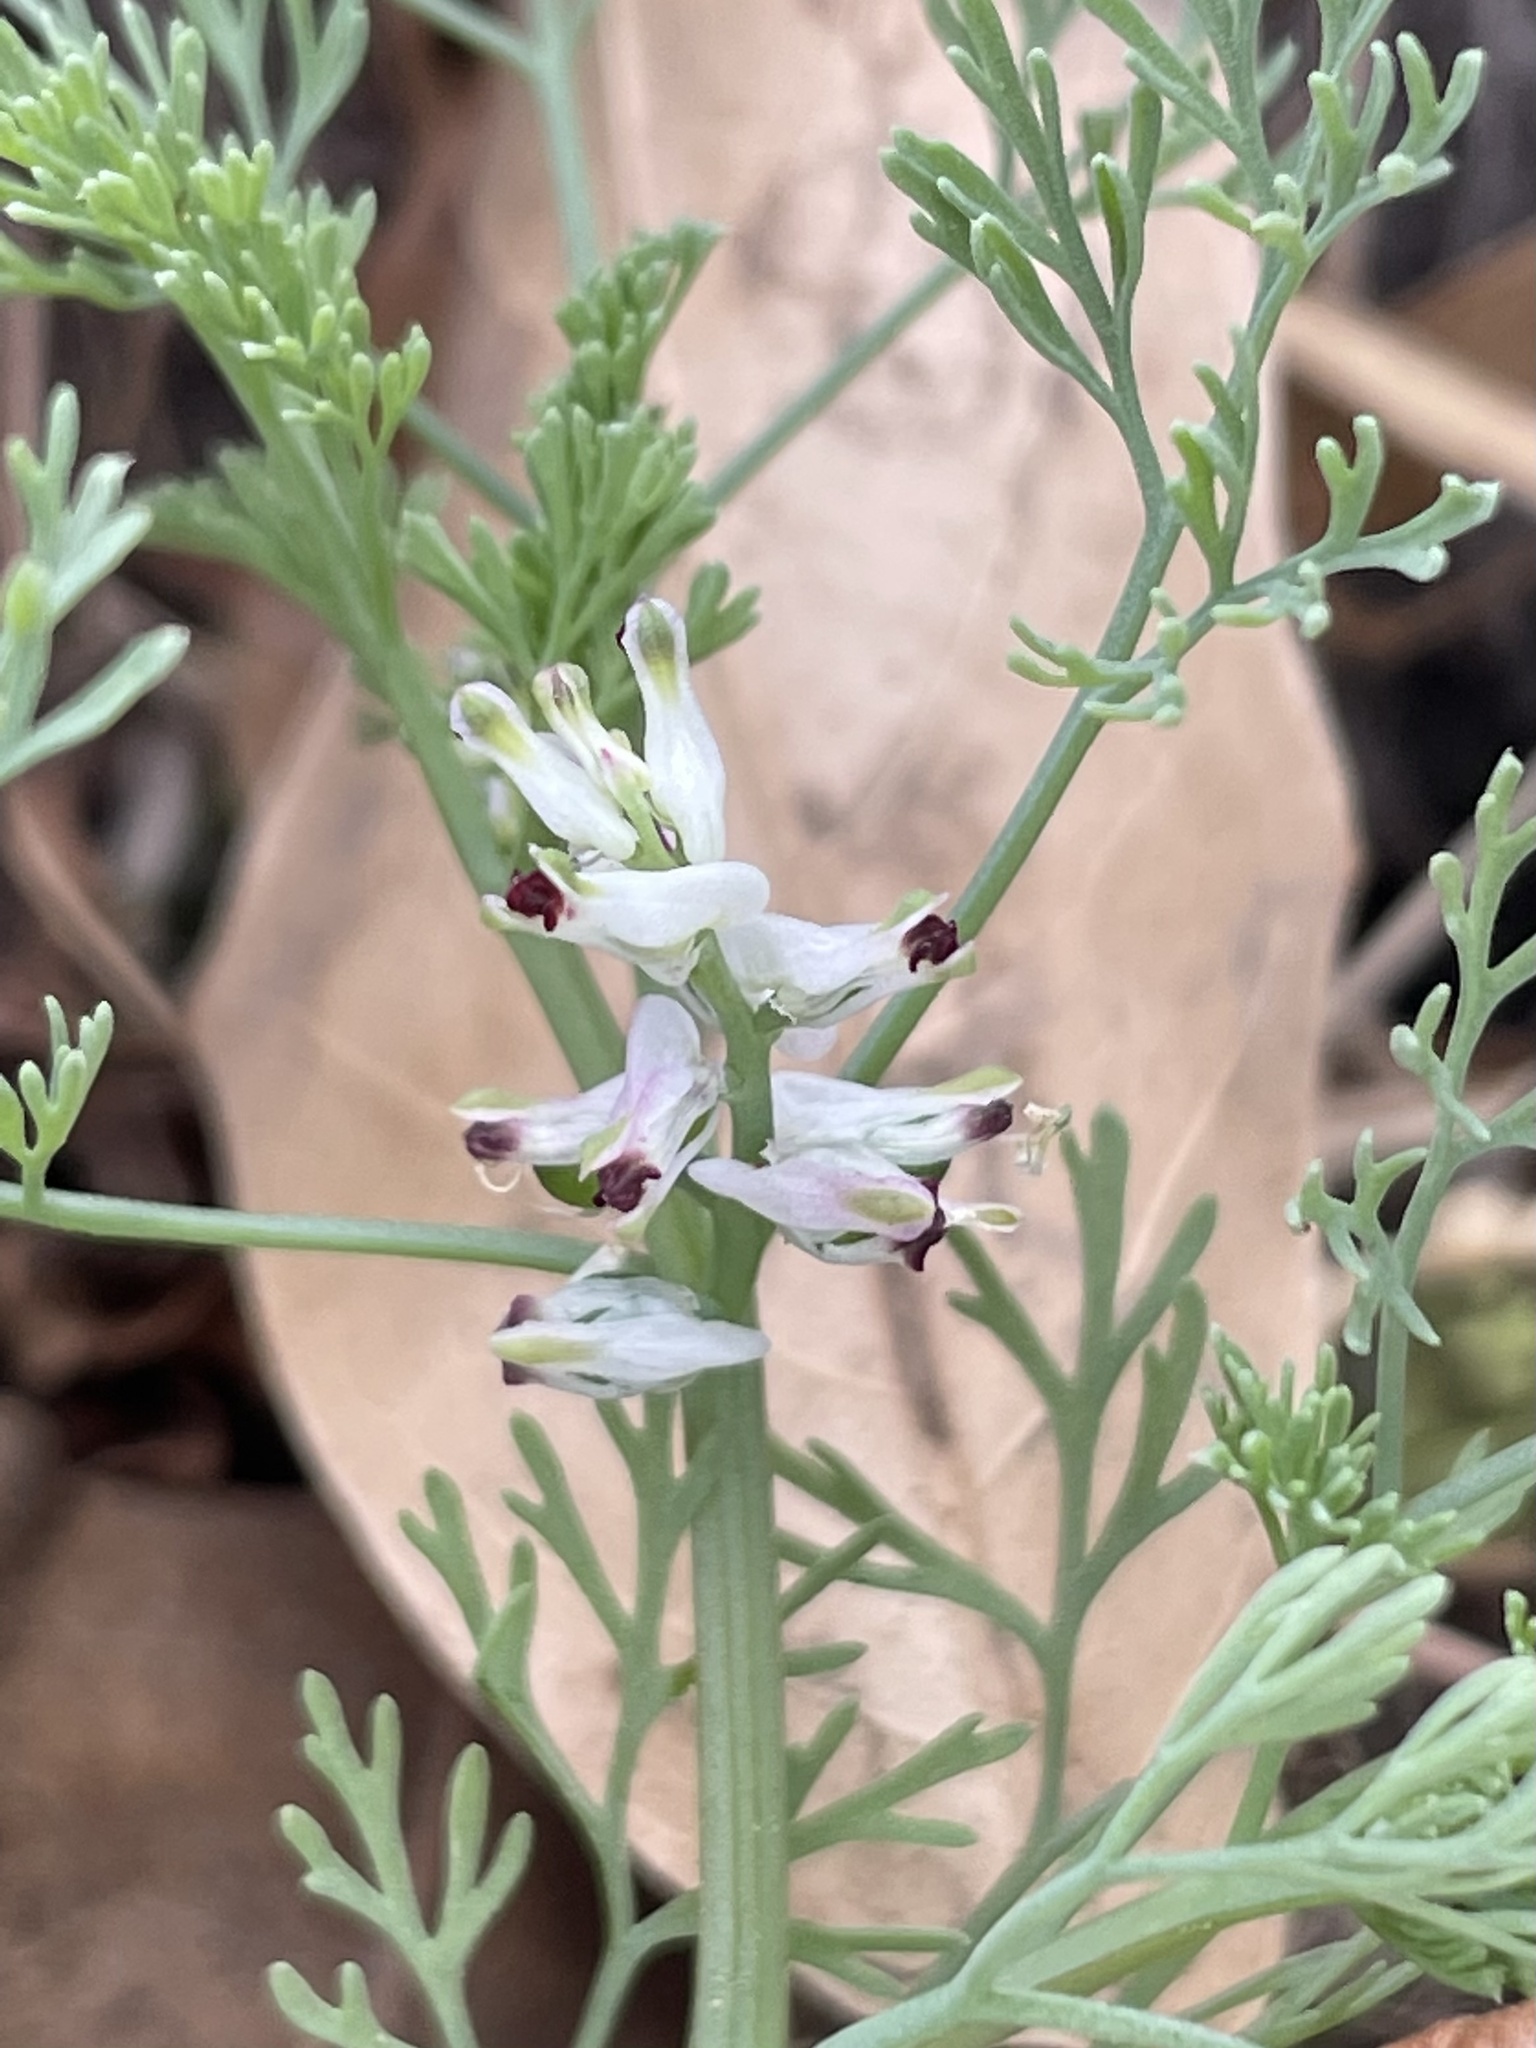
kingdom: Plantae
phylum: Tracheophyta
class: Magnoliopsida
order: Ranunculales
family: Papaveraceae
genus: Fumaria
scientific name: Fumaria parviflora
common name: Fine-leaved fumitory
